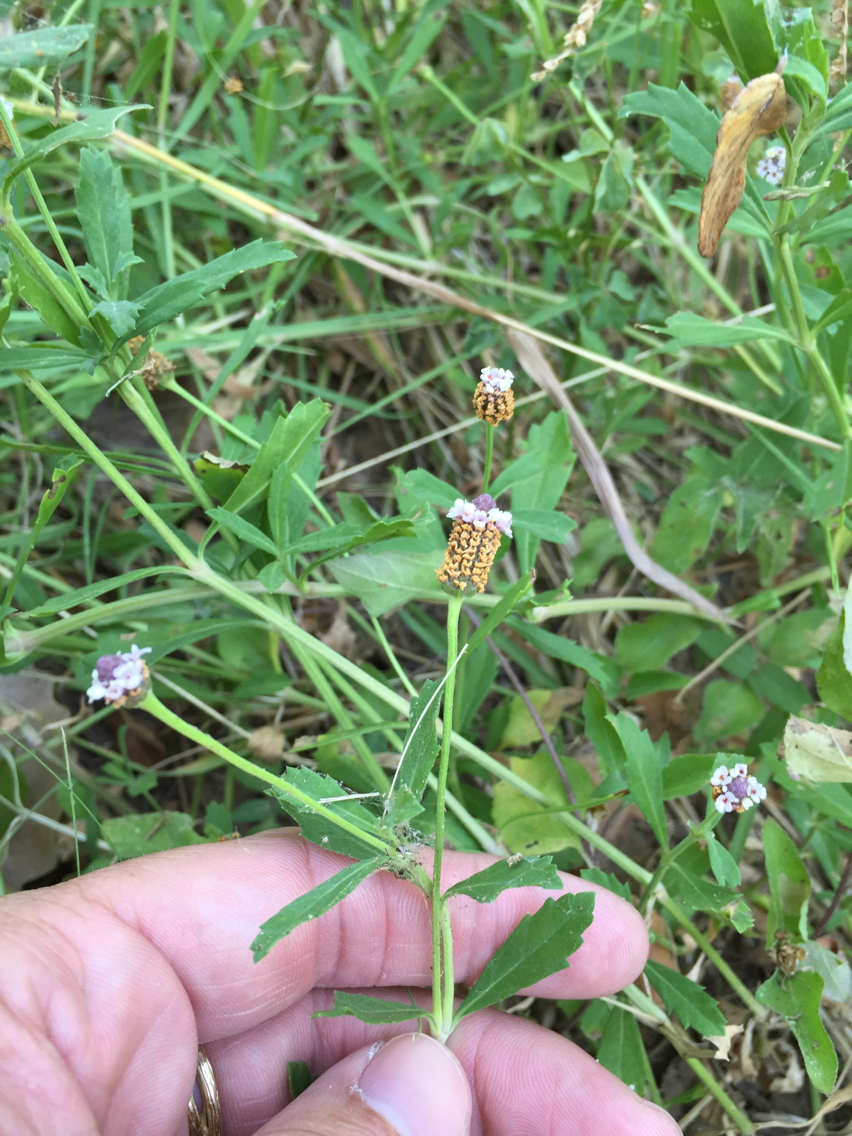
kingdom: Plantae
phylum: Tracheophyta
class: Magnoliopsida
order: Lamiales
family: Verbenaceae
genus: Phyla
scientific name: Phyla nodiflora
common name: Frogfruit
